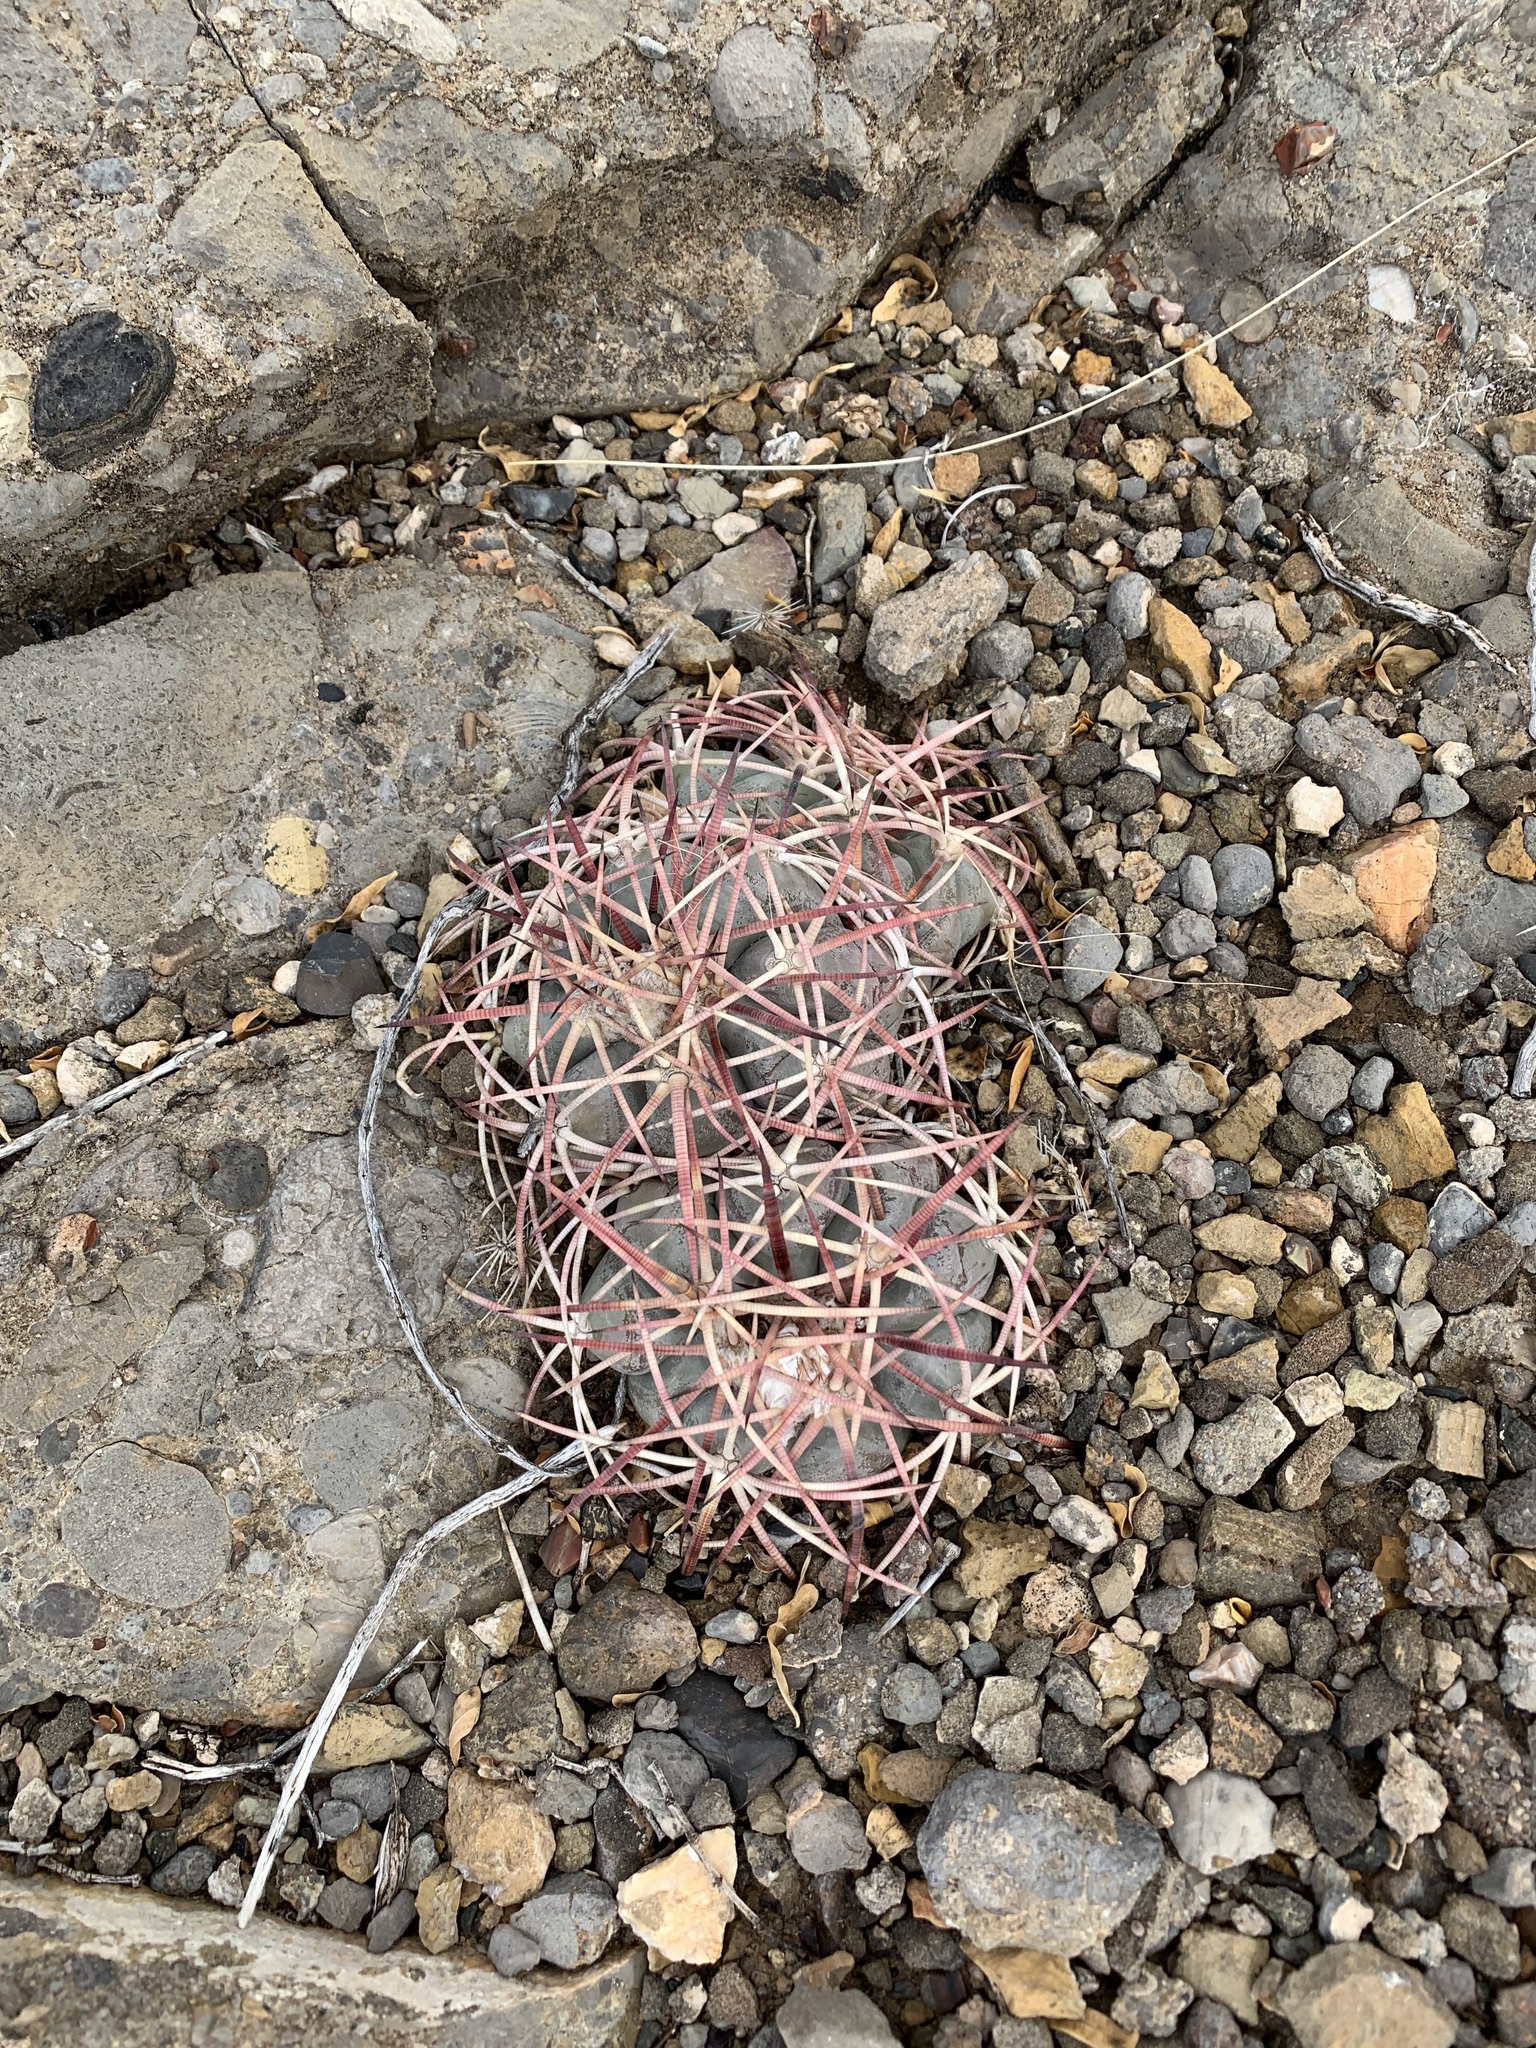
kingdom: Plantae
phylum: Tracheophyta
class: Magnoliopsida
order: Caryophyllales
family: Cactaceae
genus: Echinocactus
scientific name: Echinocactus horizonthalonius
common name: Devilshead
